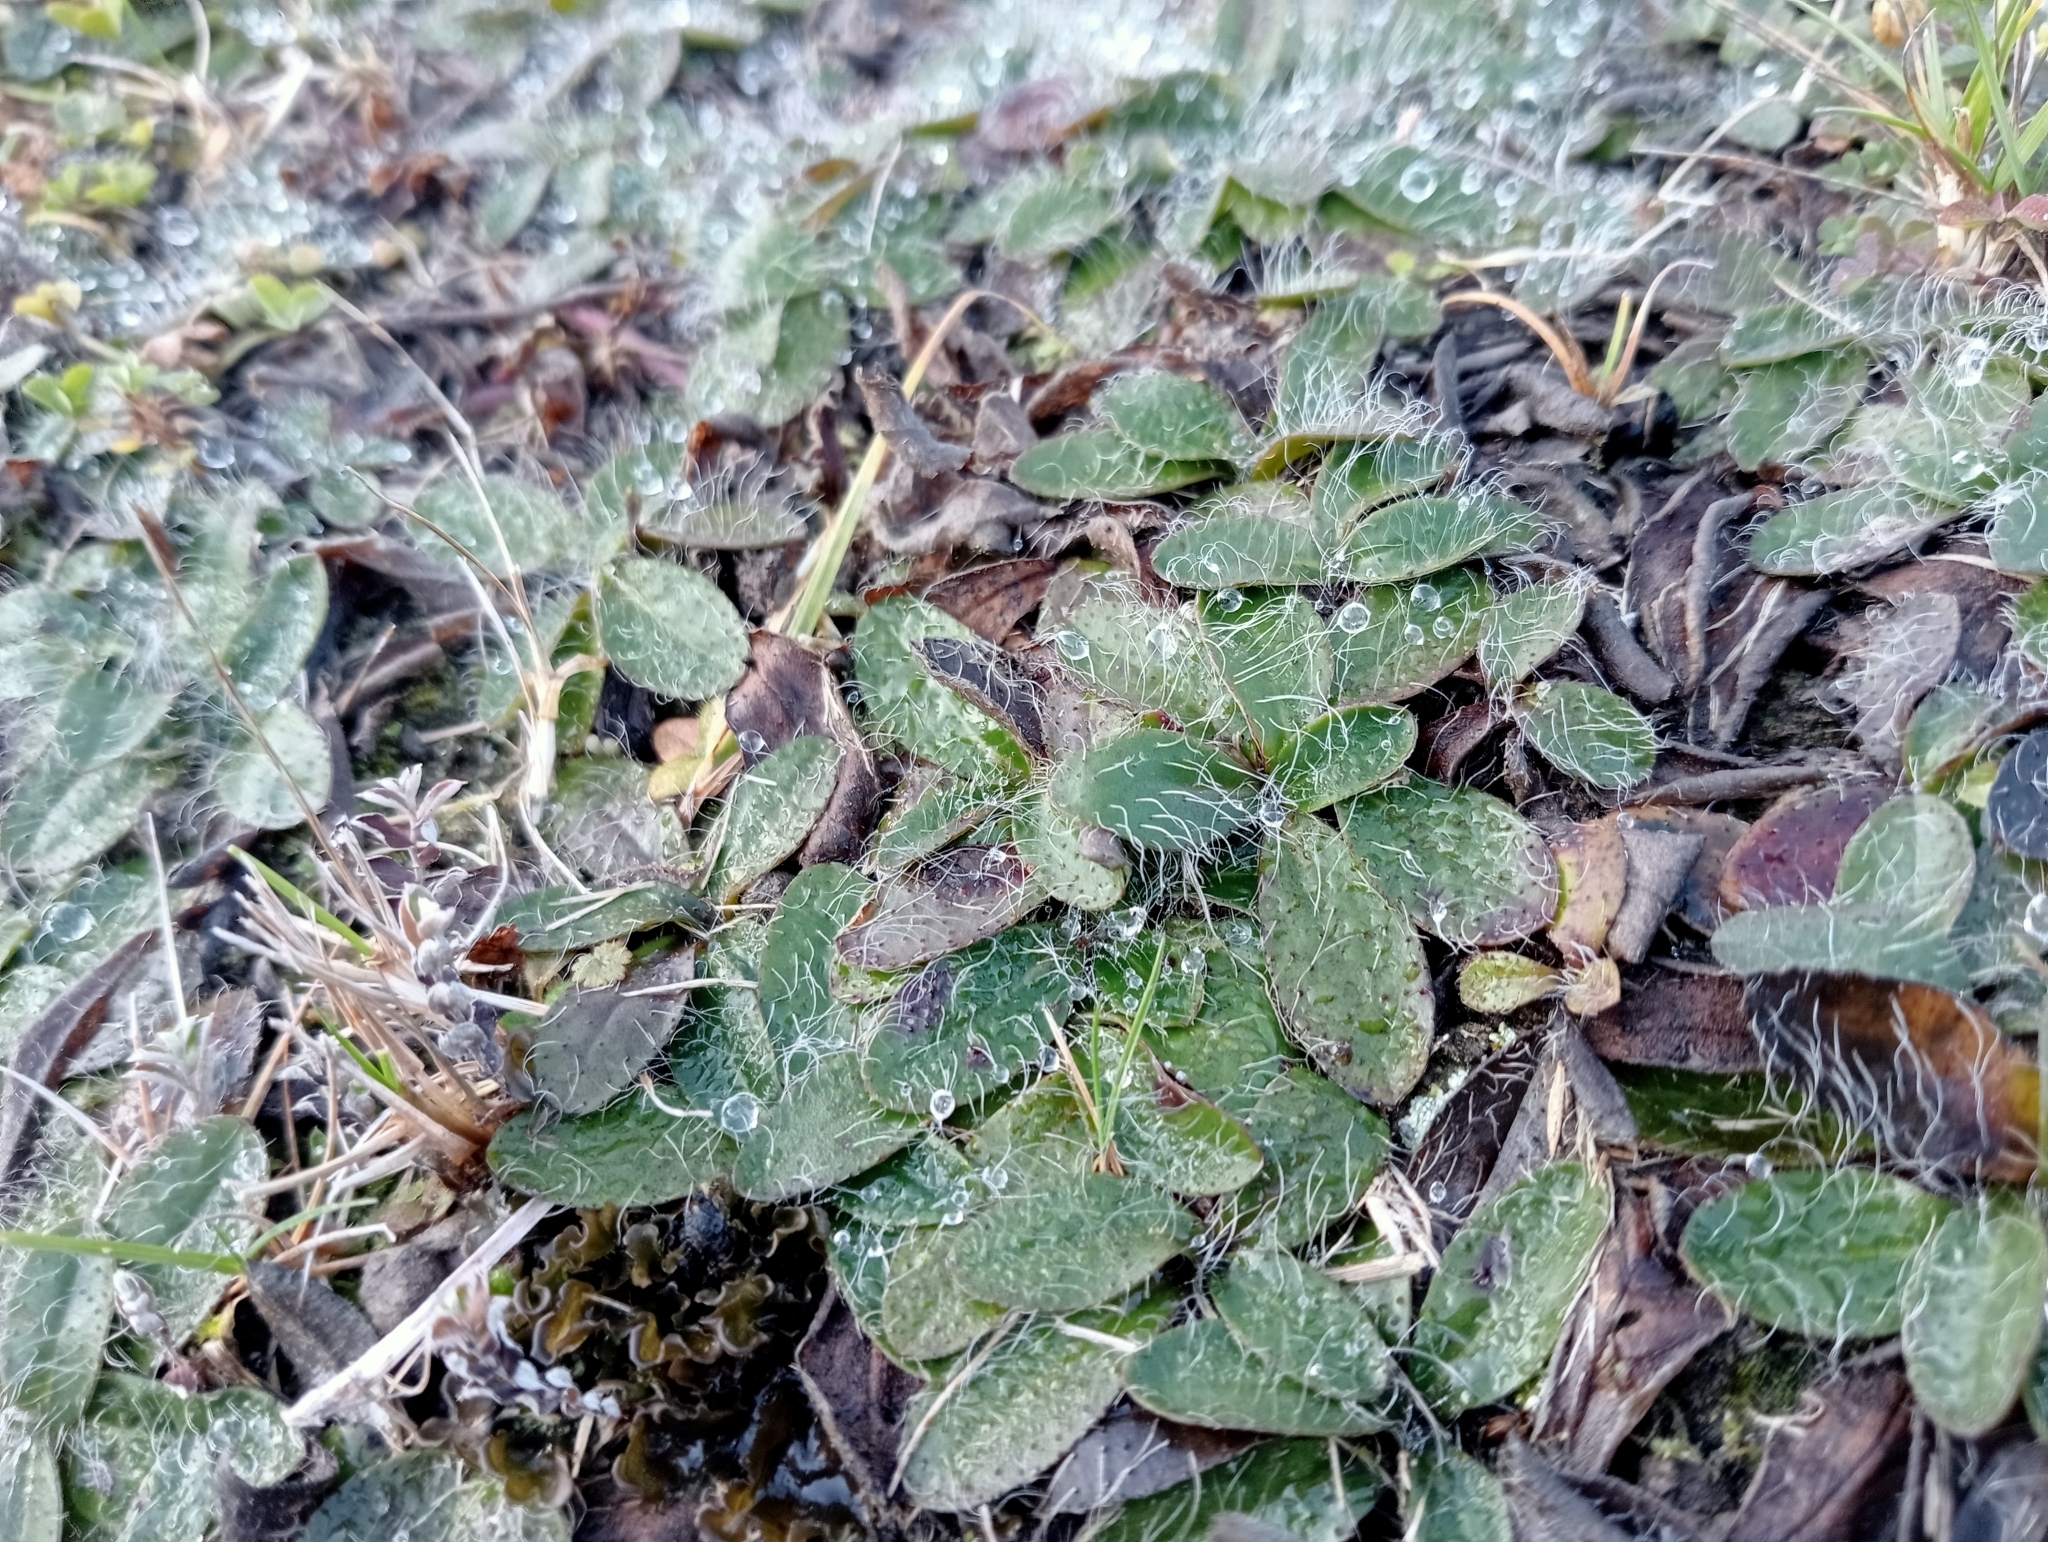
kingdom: Plantae
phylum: Tracheophyta
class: Magnoliopsida
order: Asterales
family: Asteraceae
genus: Pilosella
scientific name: Pilosella officinarum
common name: Mouse-ear hawkweed
